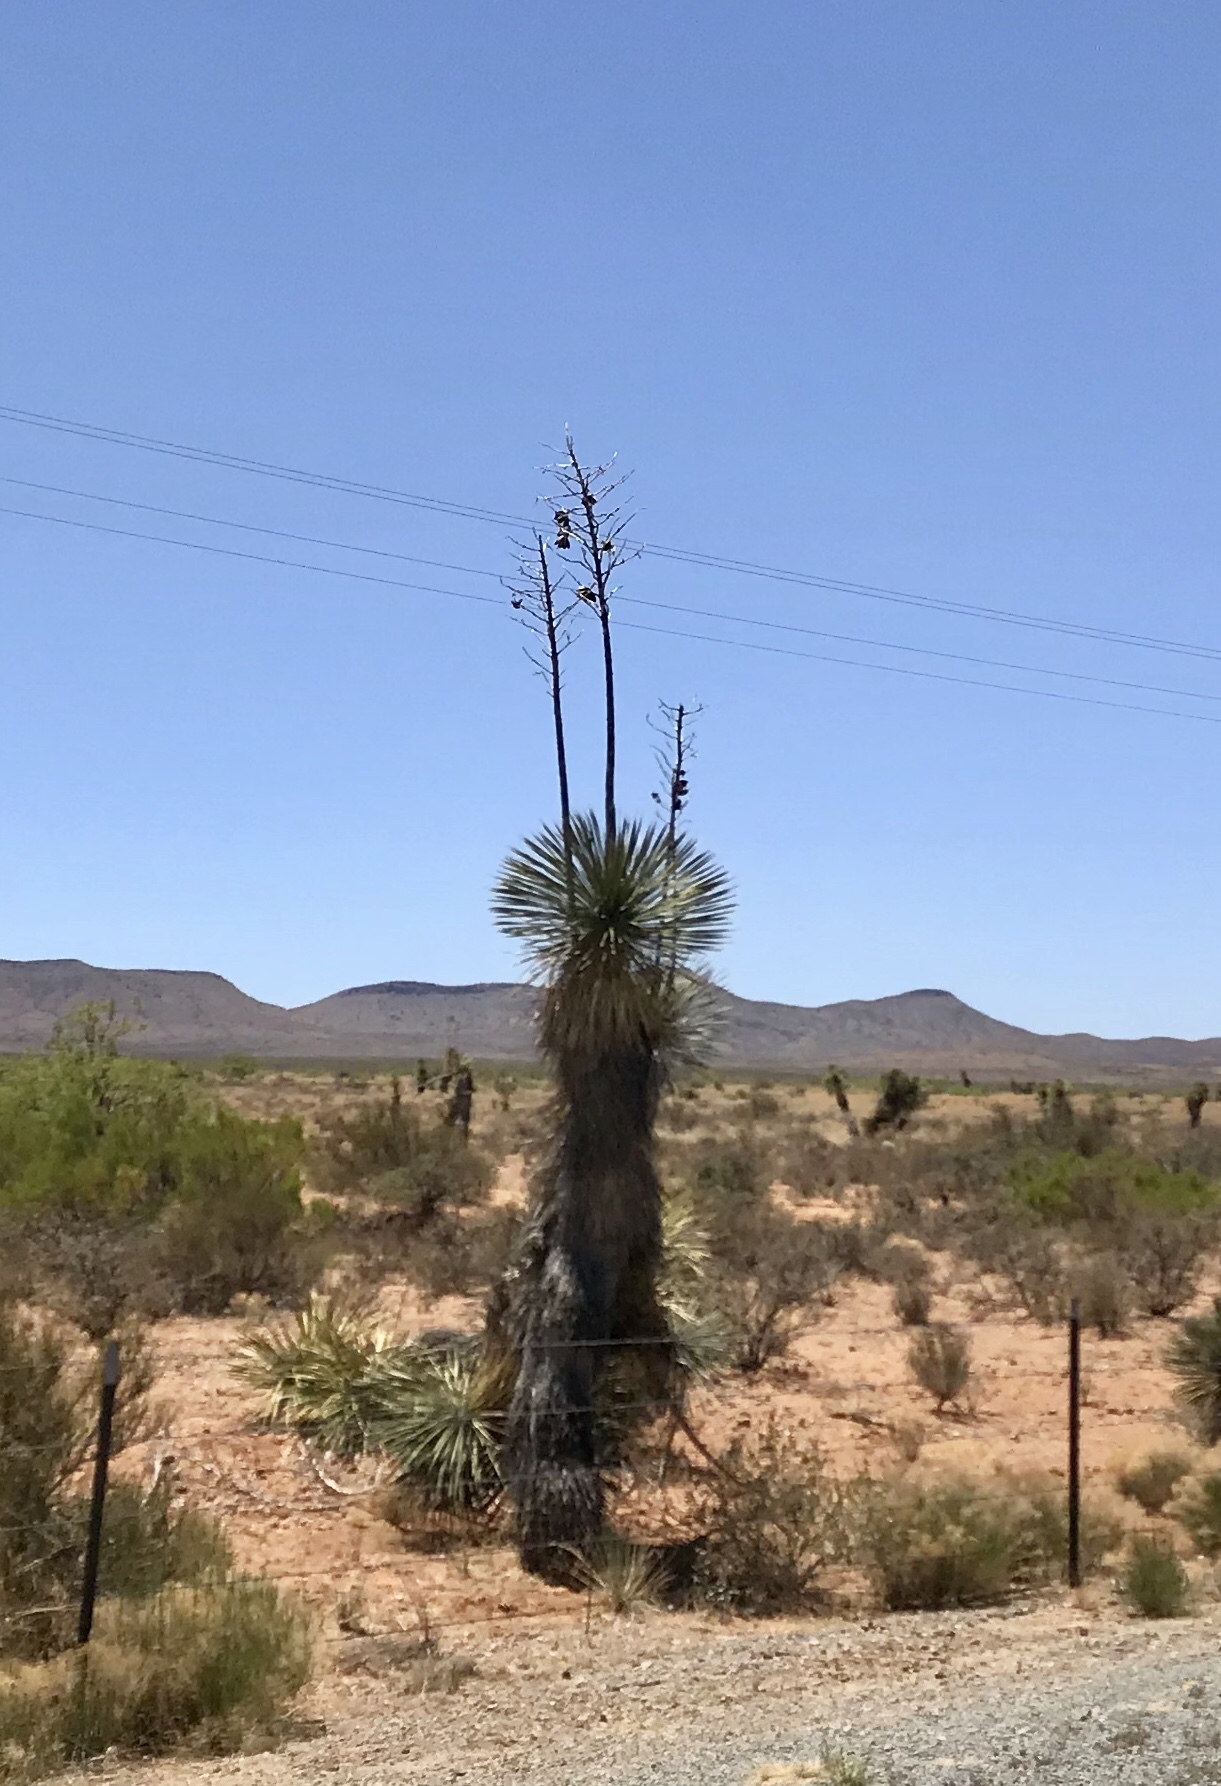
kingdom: Plantae
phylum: Tracheophyta
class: Liliopsida
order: Asparagales
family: Asparagaceae
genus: Yucca
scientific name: Yucca elata
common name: Palmella
